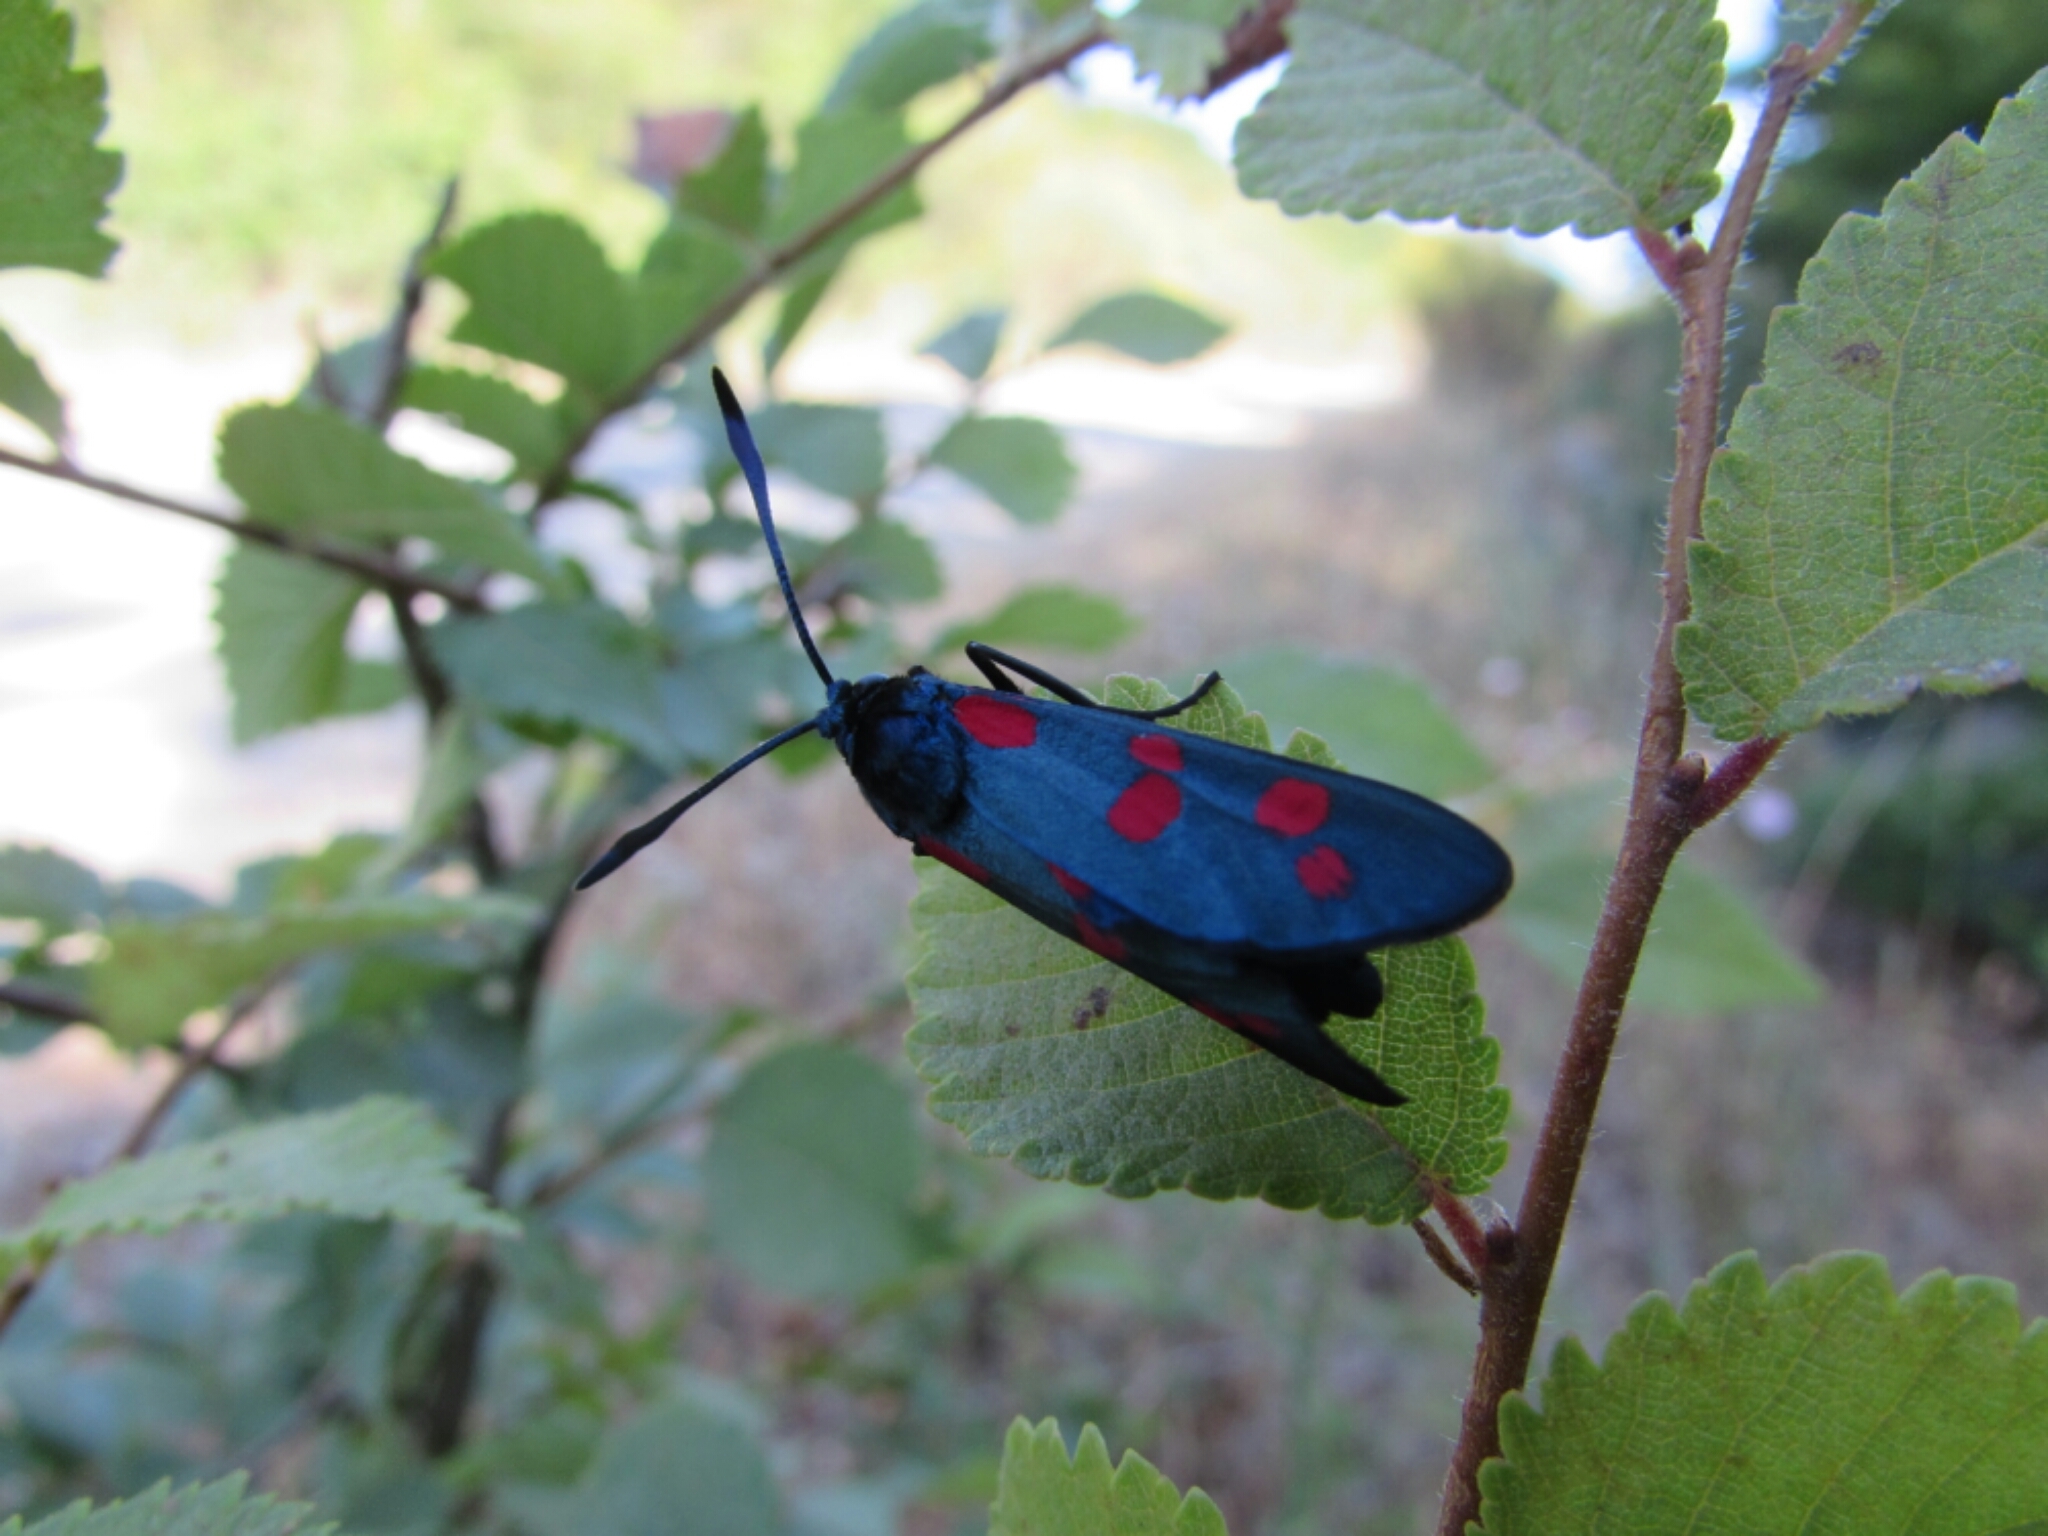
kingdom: Animalia
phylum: Arthropoda
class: Insecta
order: Lepidoptera
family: Zygaenidae
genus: Zygaena
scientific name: Zygaena filipendulae
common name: Six-spot burnet
